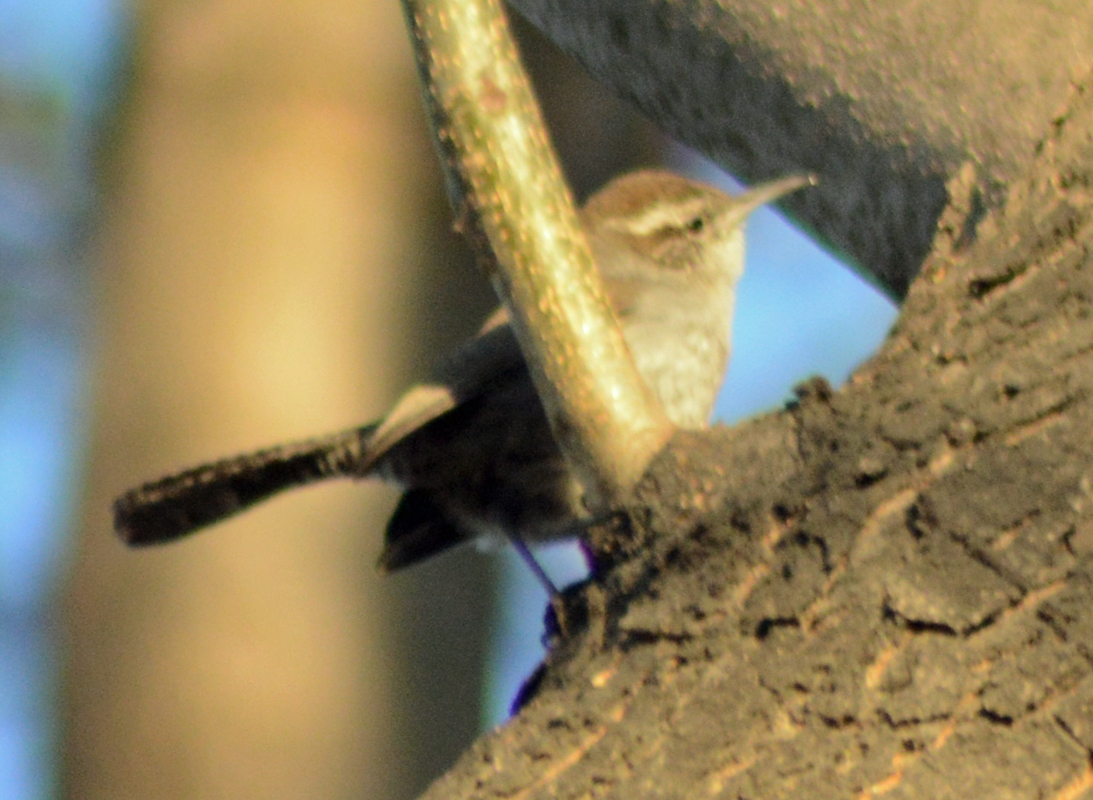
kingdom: Animalia
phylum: Chordata
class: Aves
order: Passeriformes
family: Troglodytidae
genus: Thryomanes
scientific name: Thryomanes bewickii
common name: Bewick's wren
